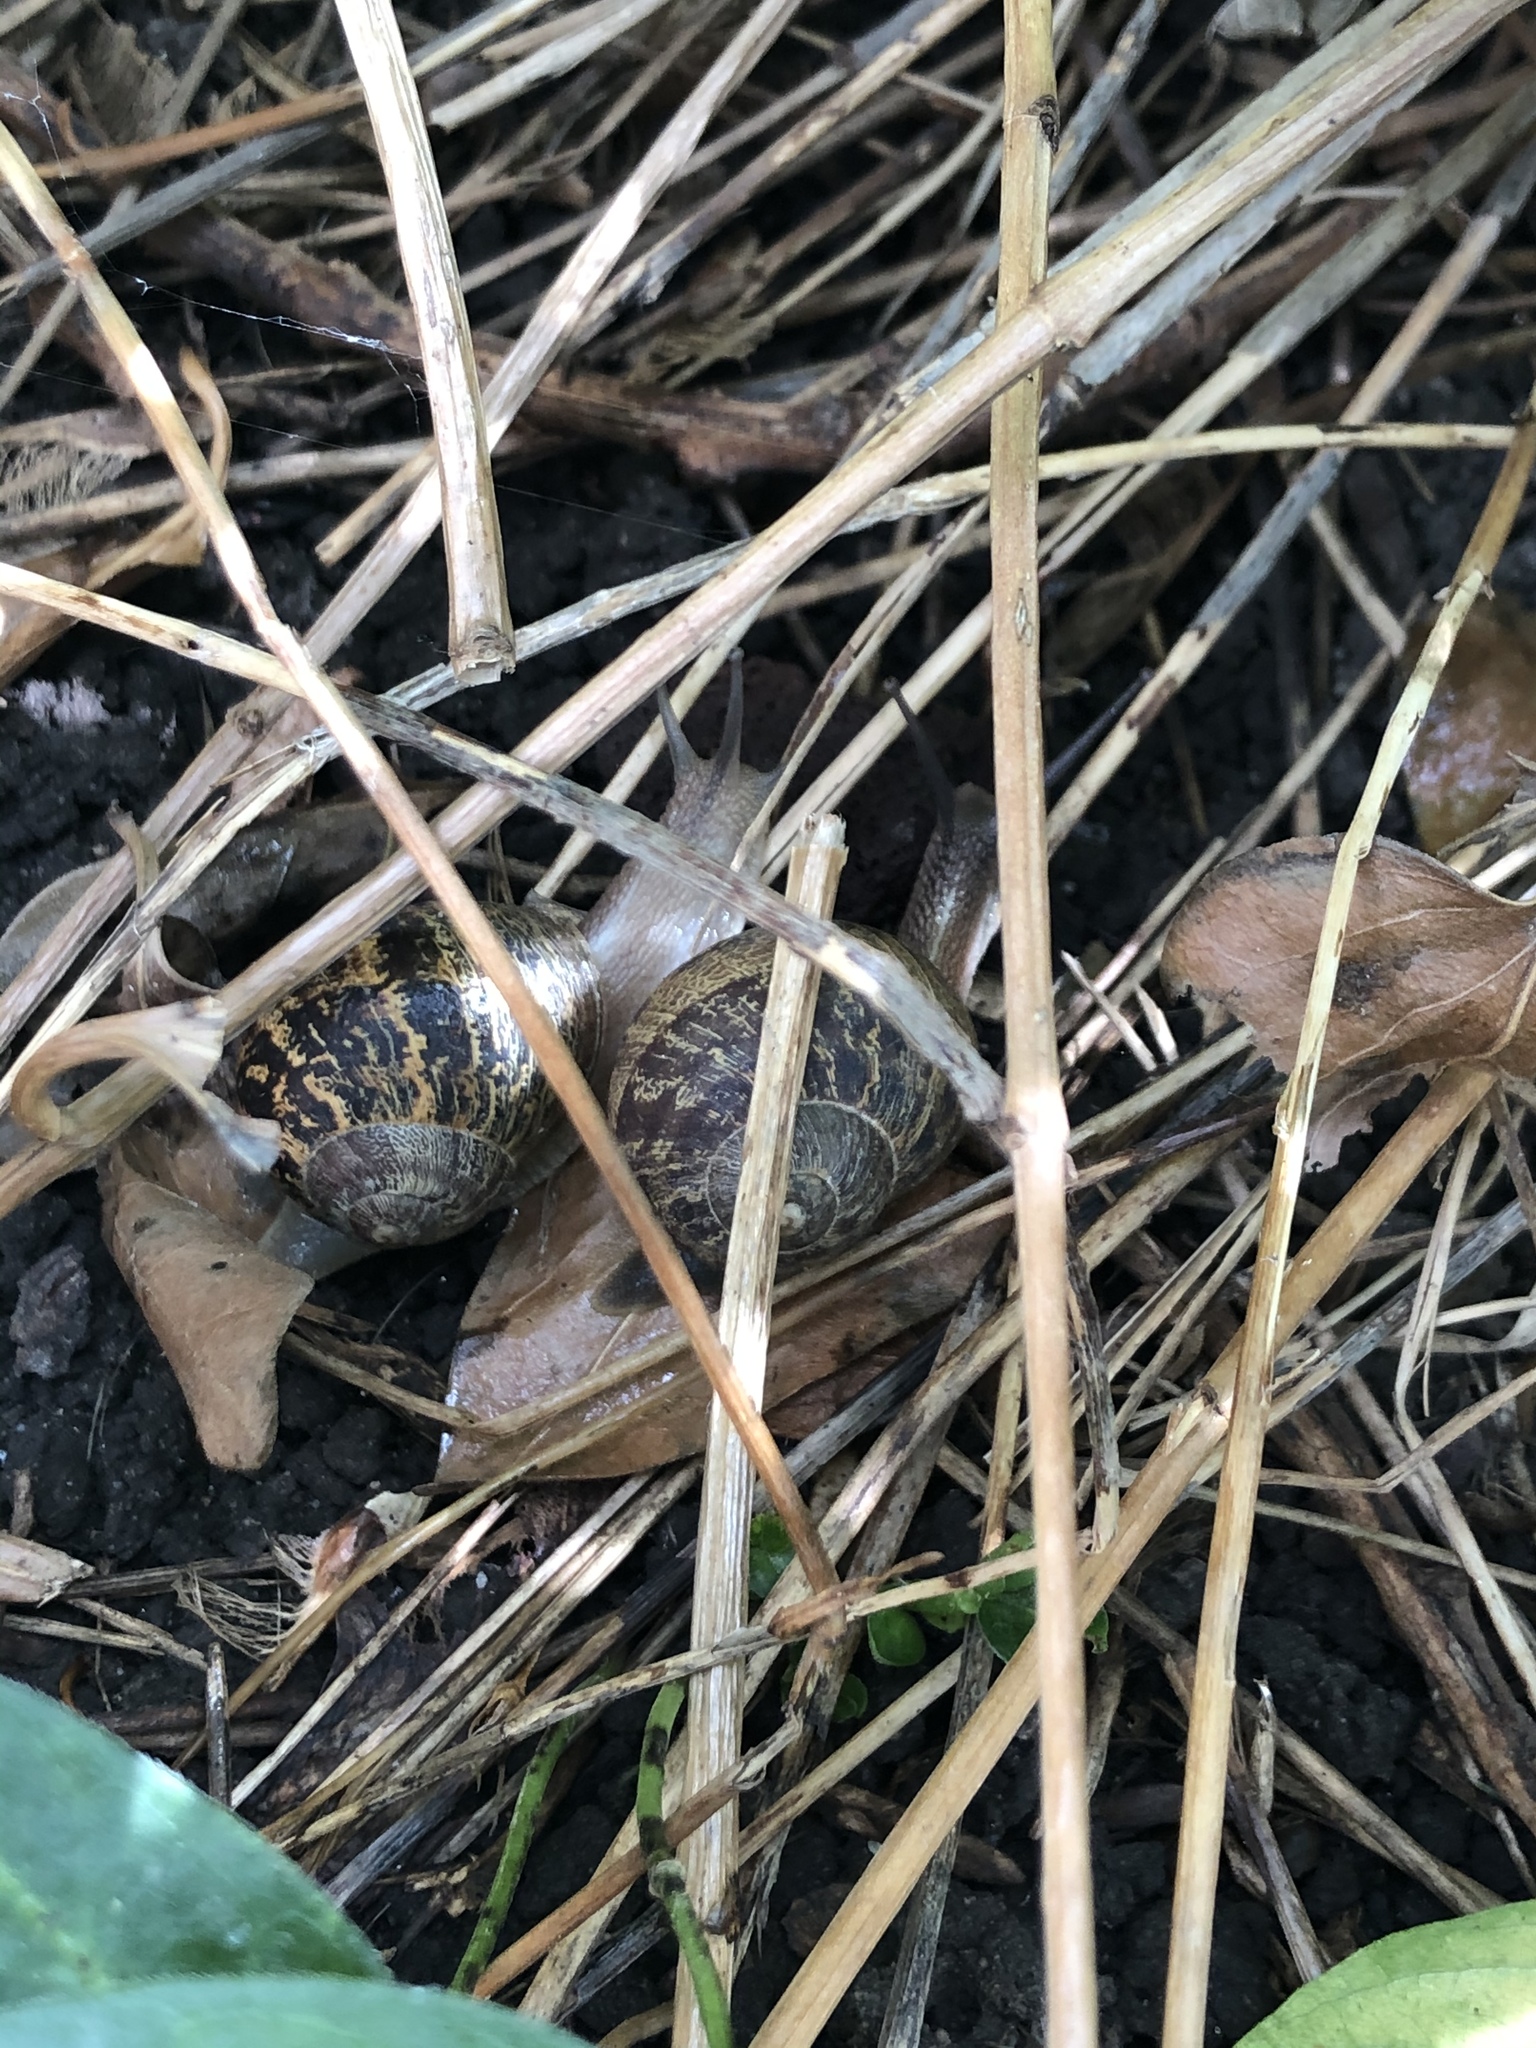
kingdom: Animalia
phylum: Mollusca
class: Gastropoda
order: Stylommatophora
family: Helicidae
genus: Cornu
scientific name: Cornu aspersum
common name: Brown garden snail
